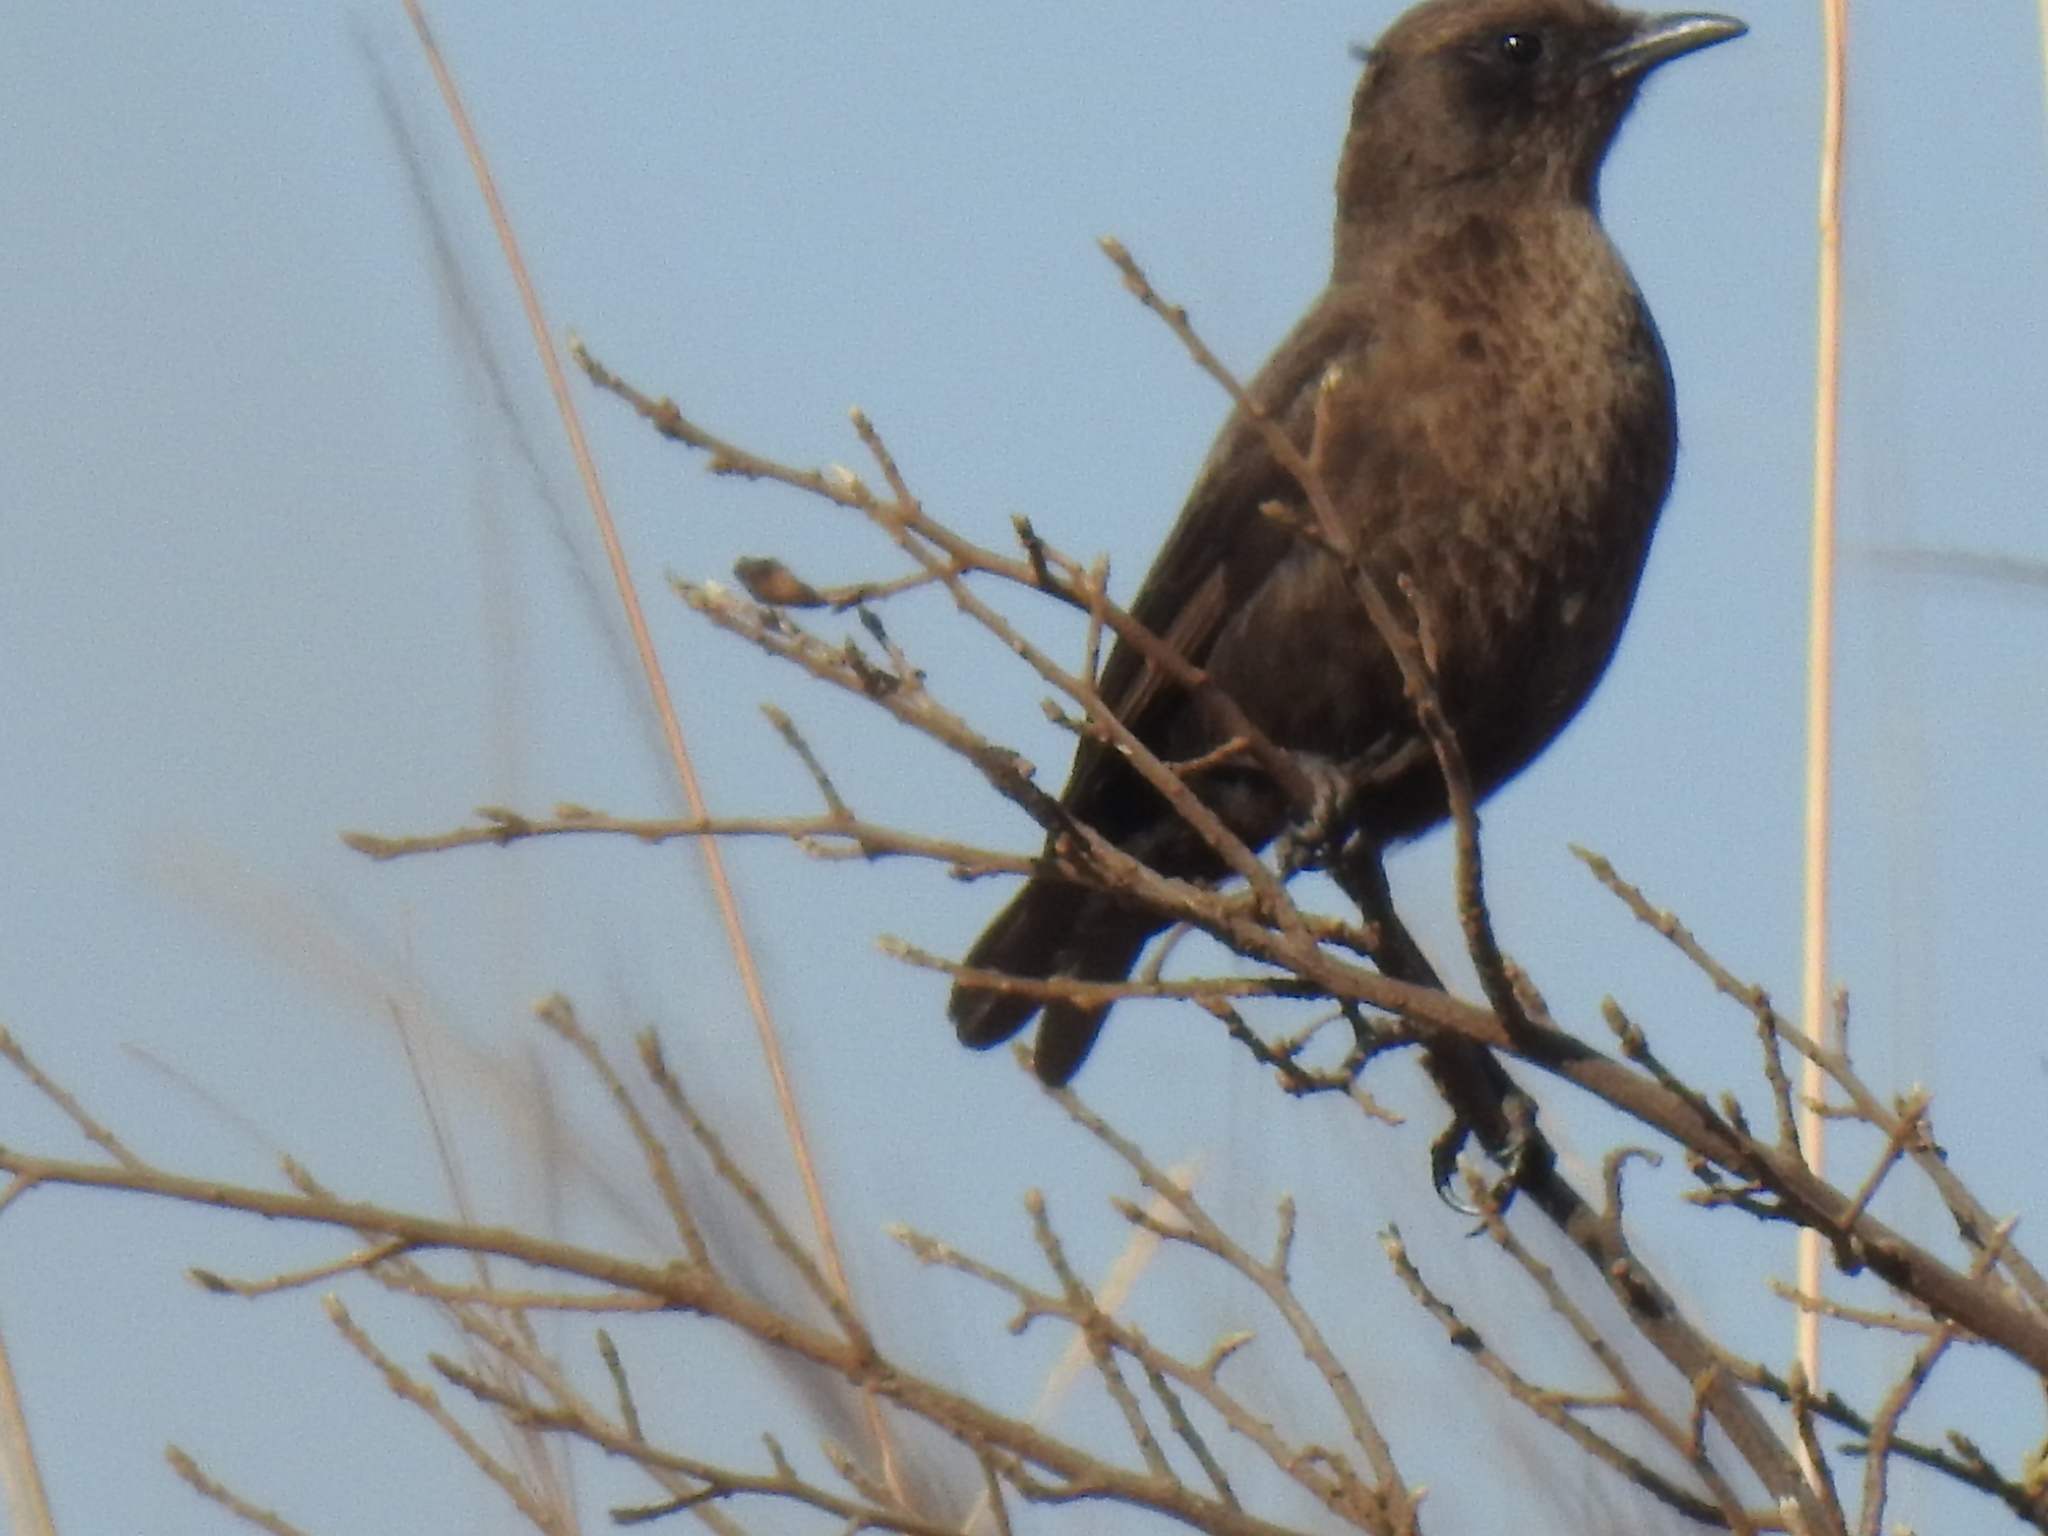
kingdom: Animalia
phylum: Chordata
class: Aves
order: Passeriformes
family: Muscicapidae
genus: Myrmecocichla
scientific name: Myrmecocichla formicivora
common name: Ant-eating chat
